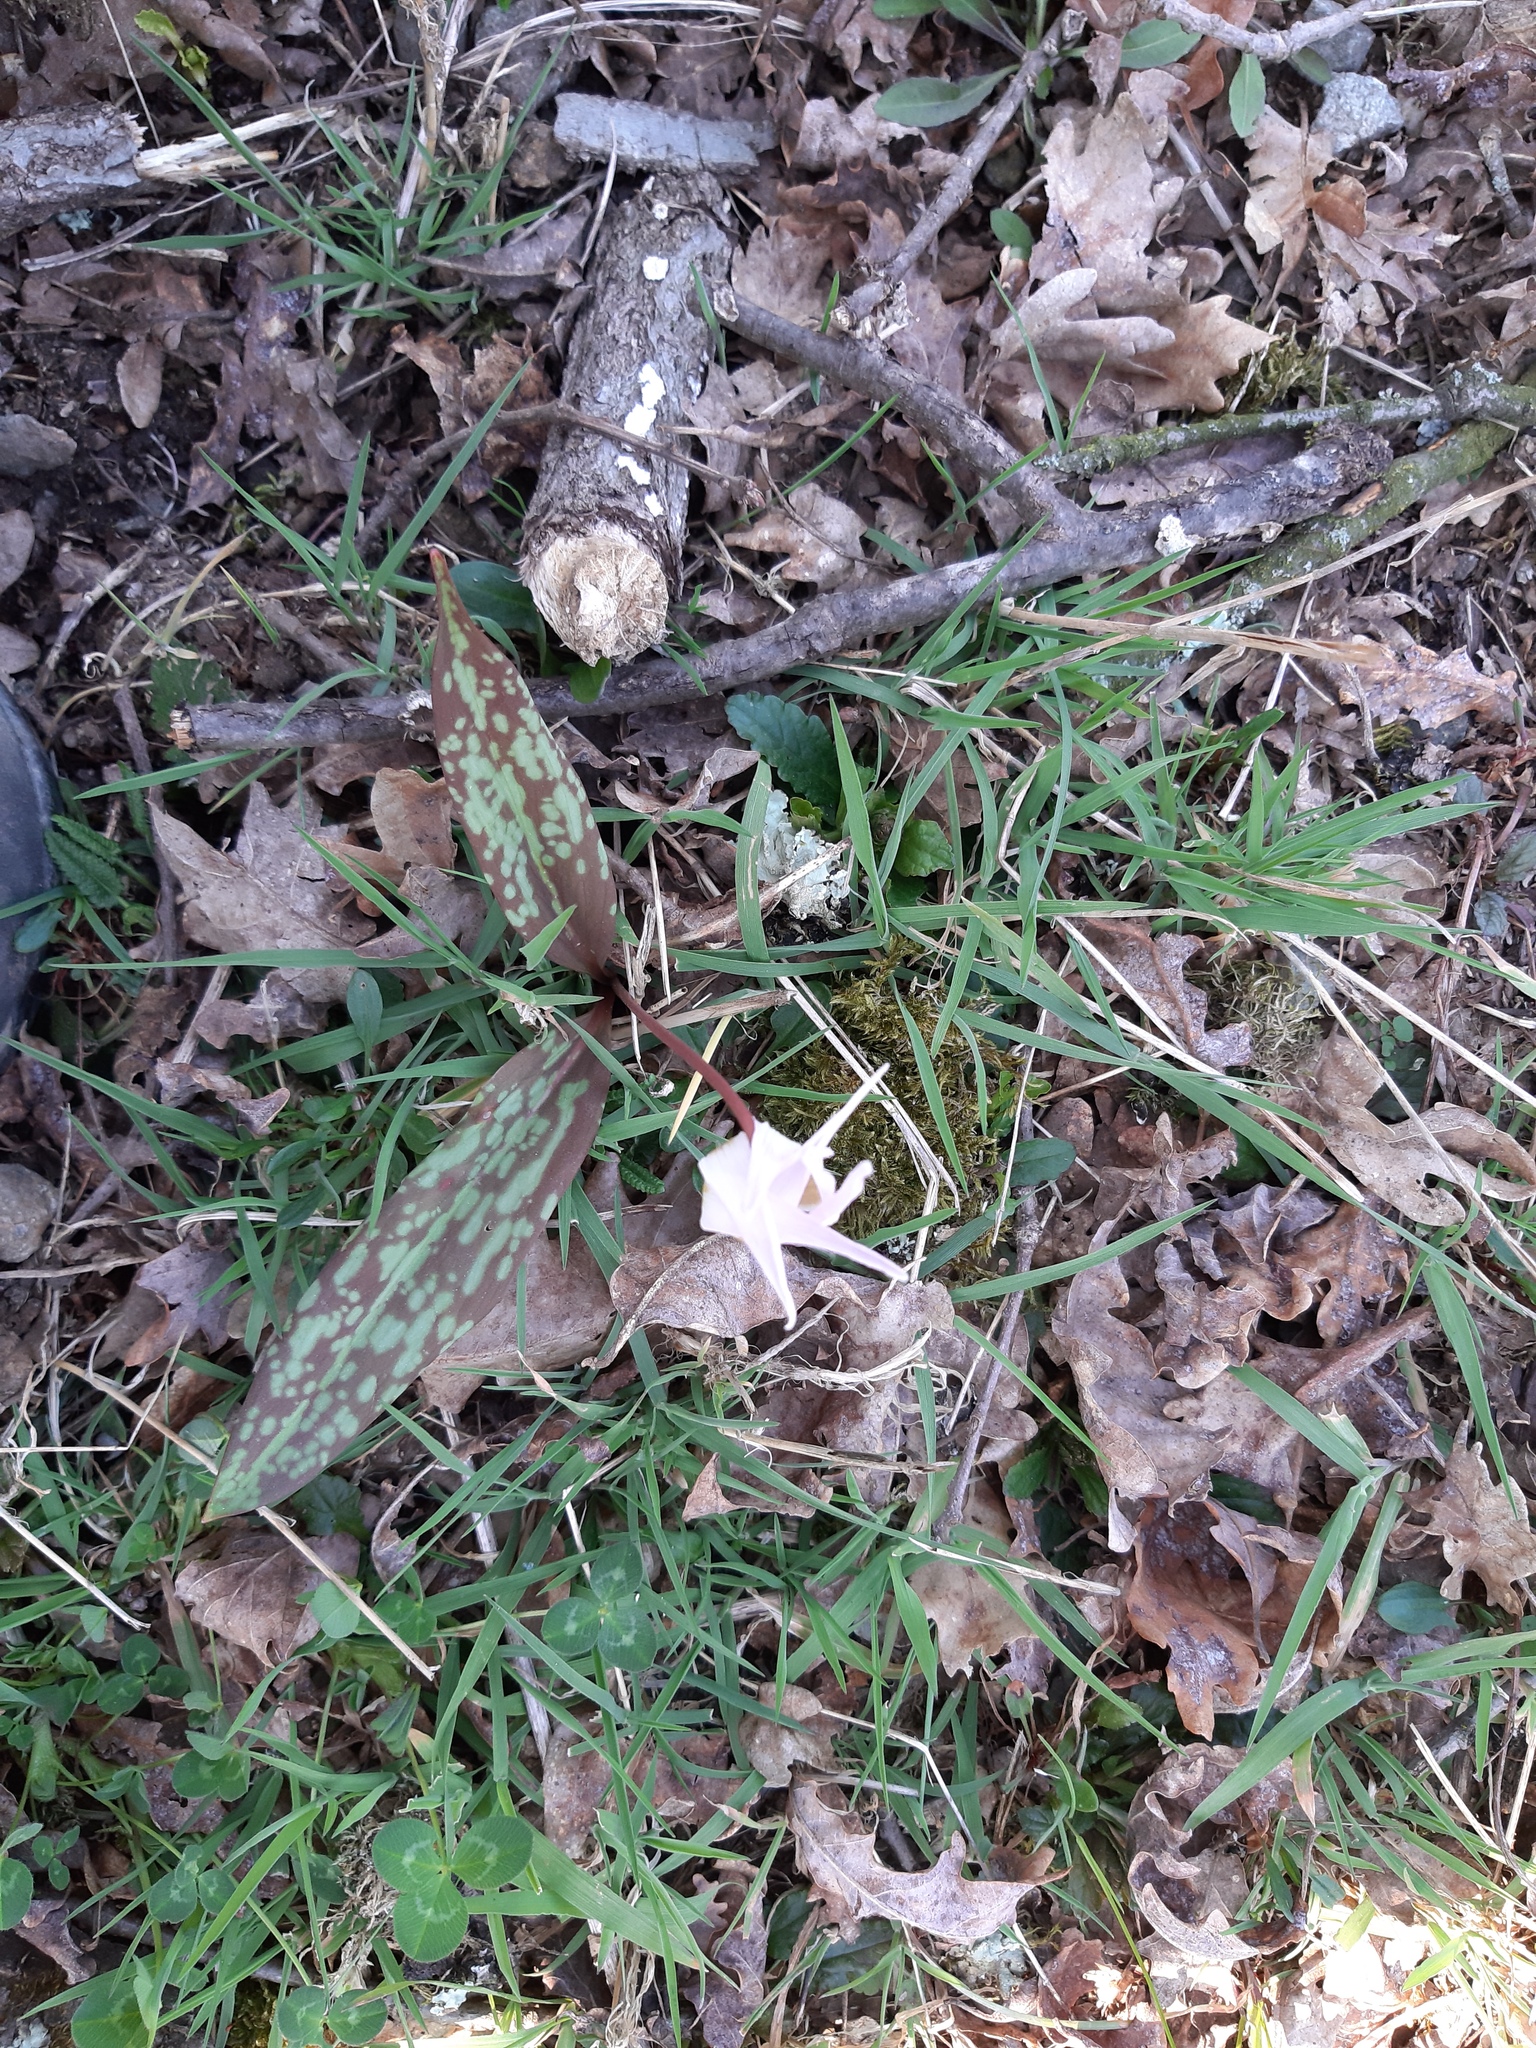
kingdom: Plantae
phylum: Tracheophyta
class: Liliopsida
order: Liliales
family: Liliaceae
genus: Erythronium
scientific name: Erythronium dens-canis
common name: Dog's-tooth-violet
